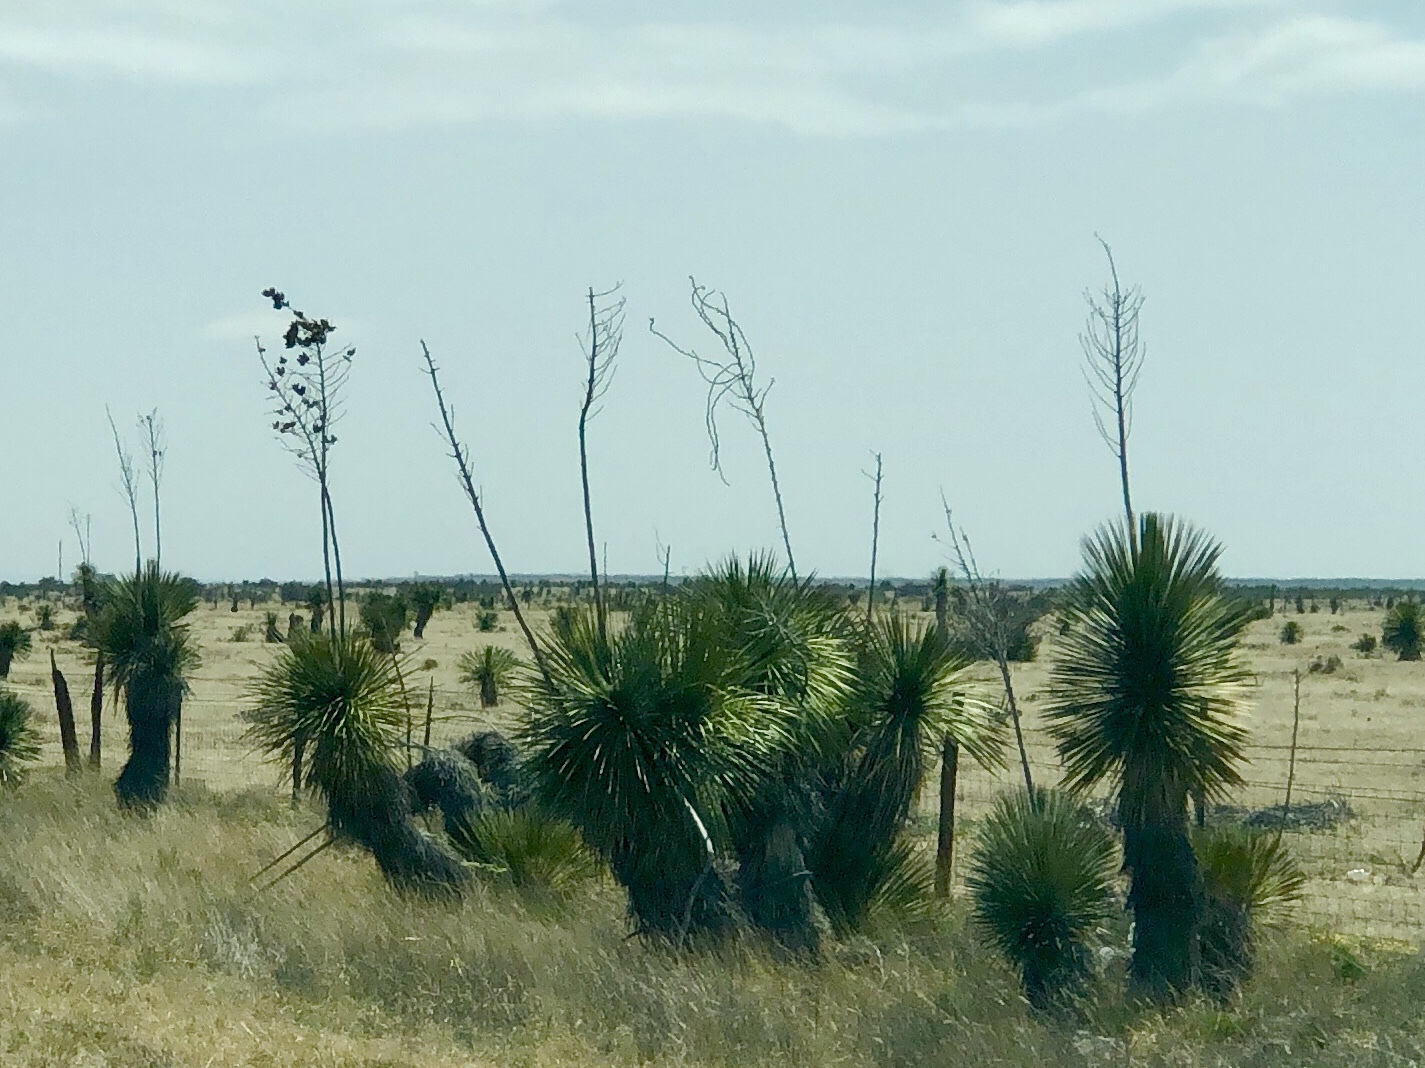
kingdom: Plantae
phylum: Tracheophyta
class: Liliopsida
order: Asparagales
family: Asparagaceae
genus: Yucca
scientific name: Yucca elata
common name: Palmella
